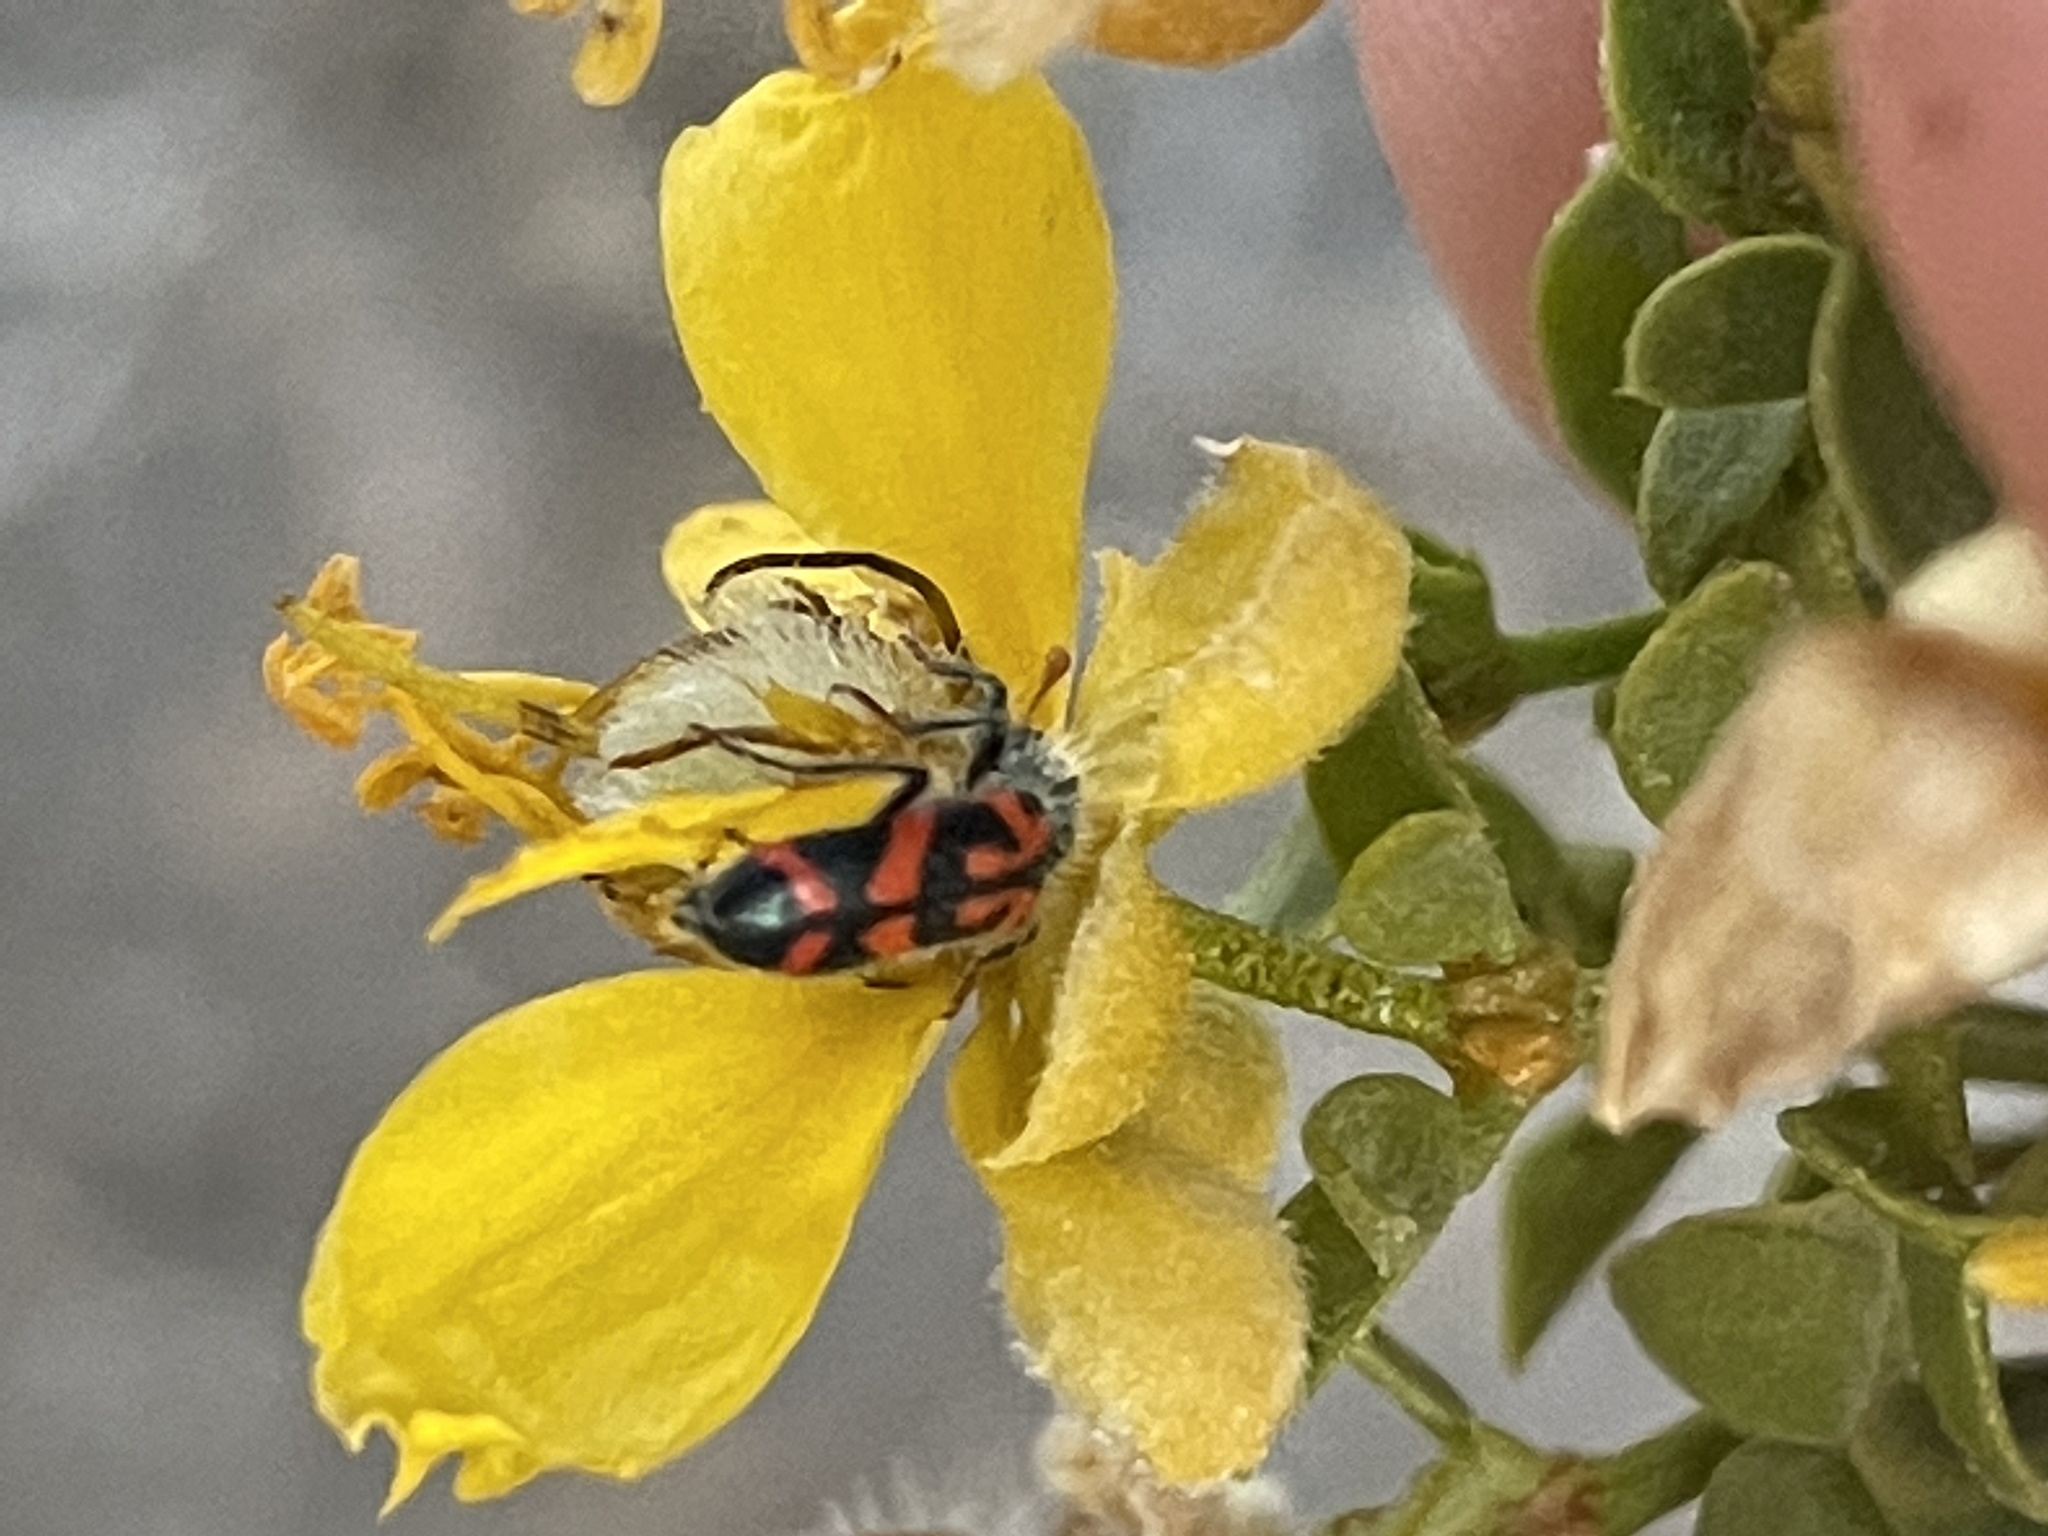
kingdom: Animalia
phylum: Arthropoda
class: Insecta
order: Coleoptera
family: Cleridae
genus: Trichodes
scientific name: Trichodes ornatus
